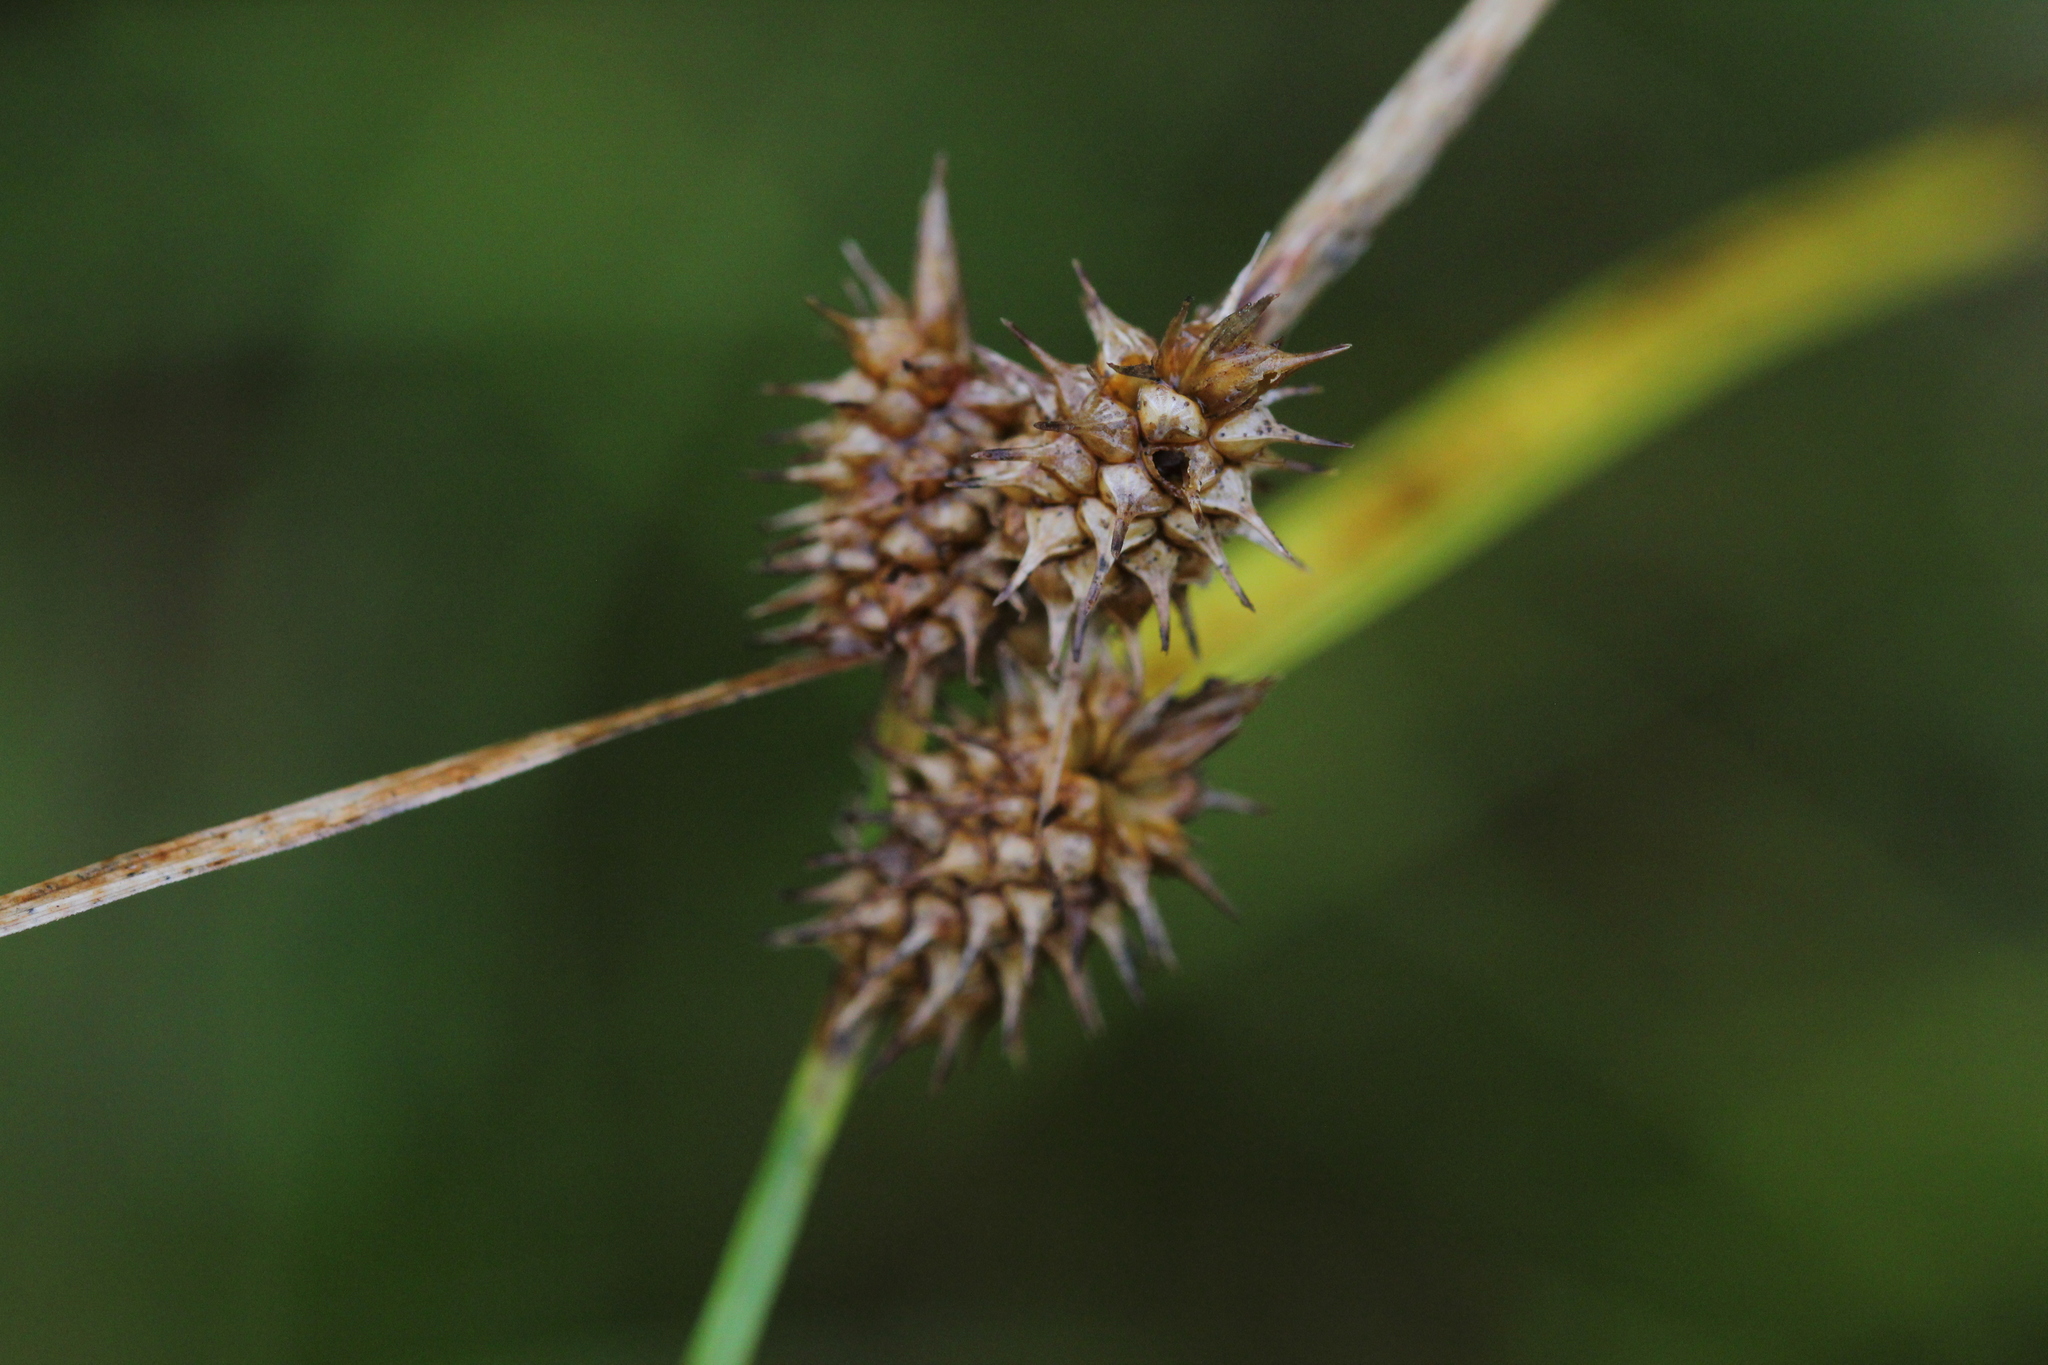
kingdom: Plantae
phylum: Tracheophyta
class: Liliopsida
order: Poales
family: Cyperaceae
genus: Carex
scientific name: Carex cryptolepis
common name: Northeastern sedge
